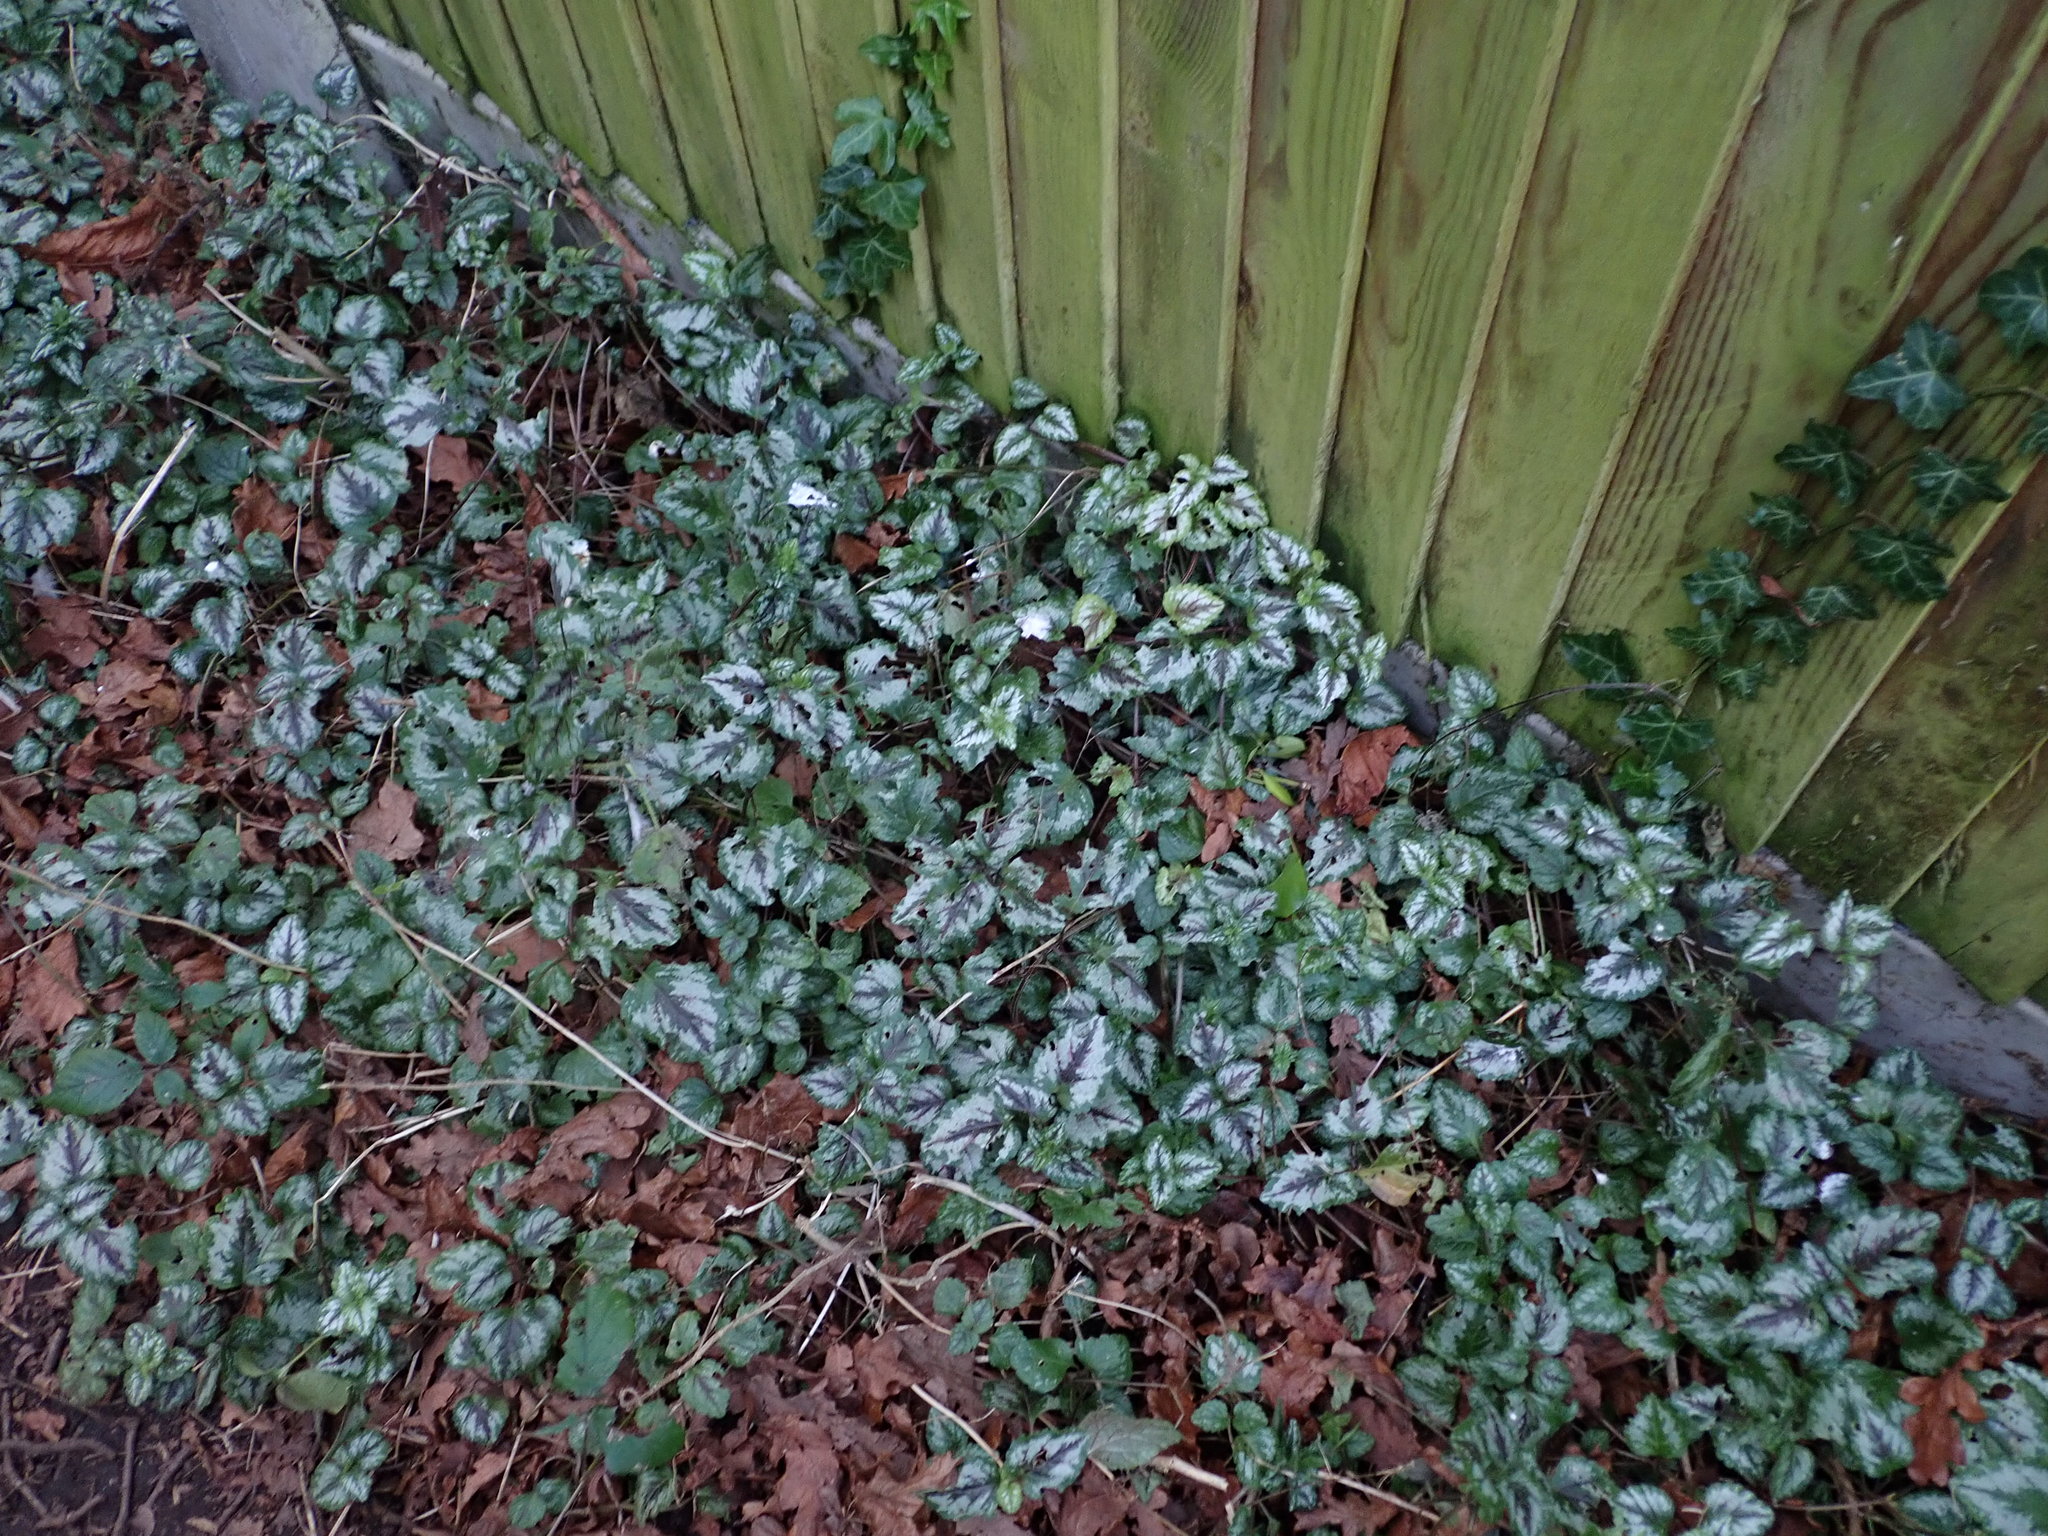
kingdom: Plantae
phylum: Tracheophyta
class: Magnoliopsida
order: Lamiales
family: Lamiaceae
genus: Lamium
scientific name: Lamium galeobdolon
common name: Yellow archangel
